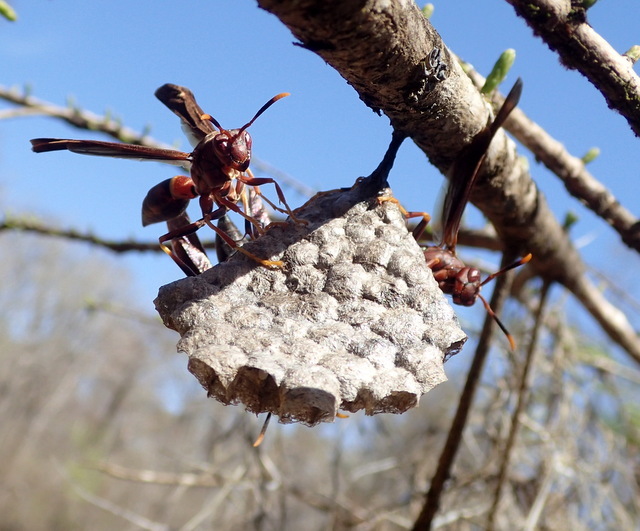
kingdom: Animalia
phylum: Arthropoda
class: Insecta
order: Hymenoptera
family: Eumenidae
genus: Polistes
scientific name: Polistes annularis
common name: Ringed paper wasp
